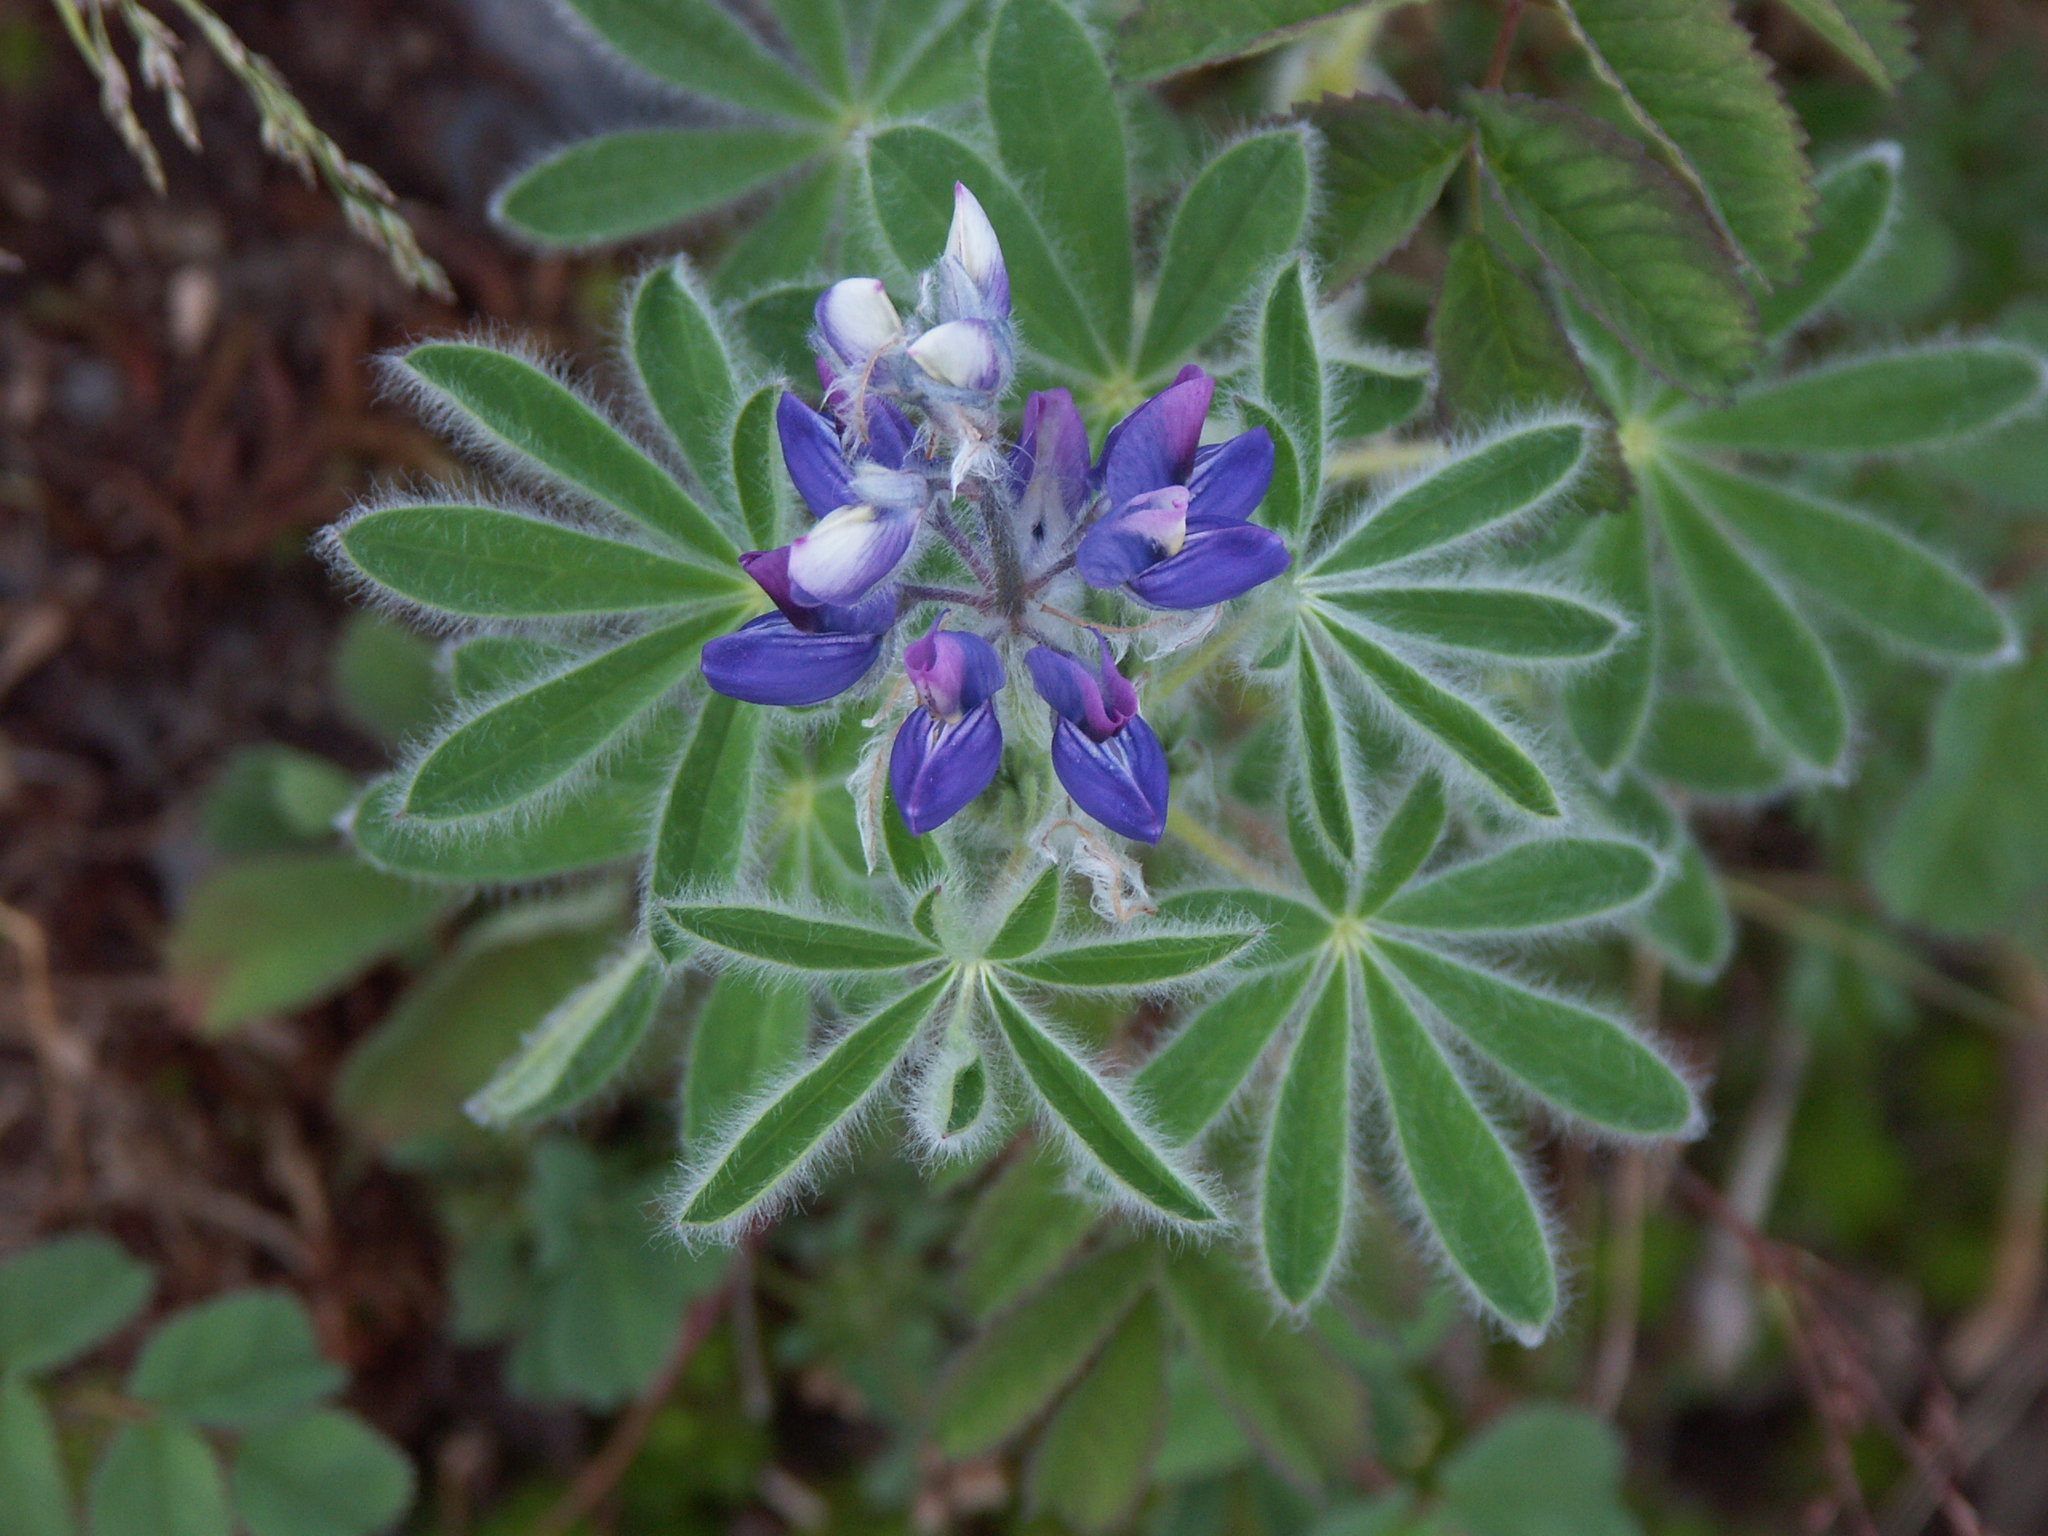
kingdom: Plantae
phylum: Tracheophyta
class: Magnoliopsida
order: Fabales
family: Fabaceae
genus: Lupinus
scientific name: Lupinus nootkatensis
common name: Nootka lupine
